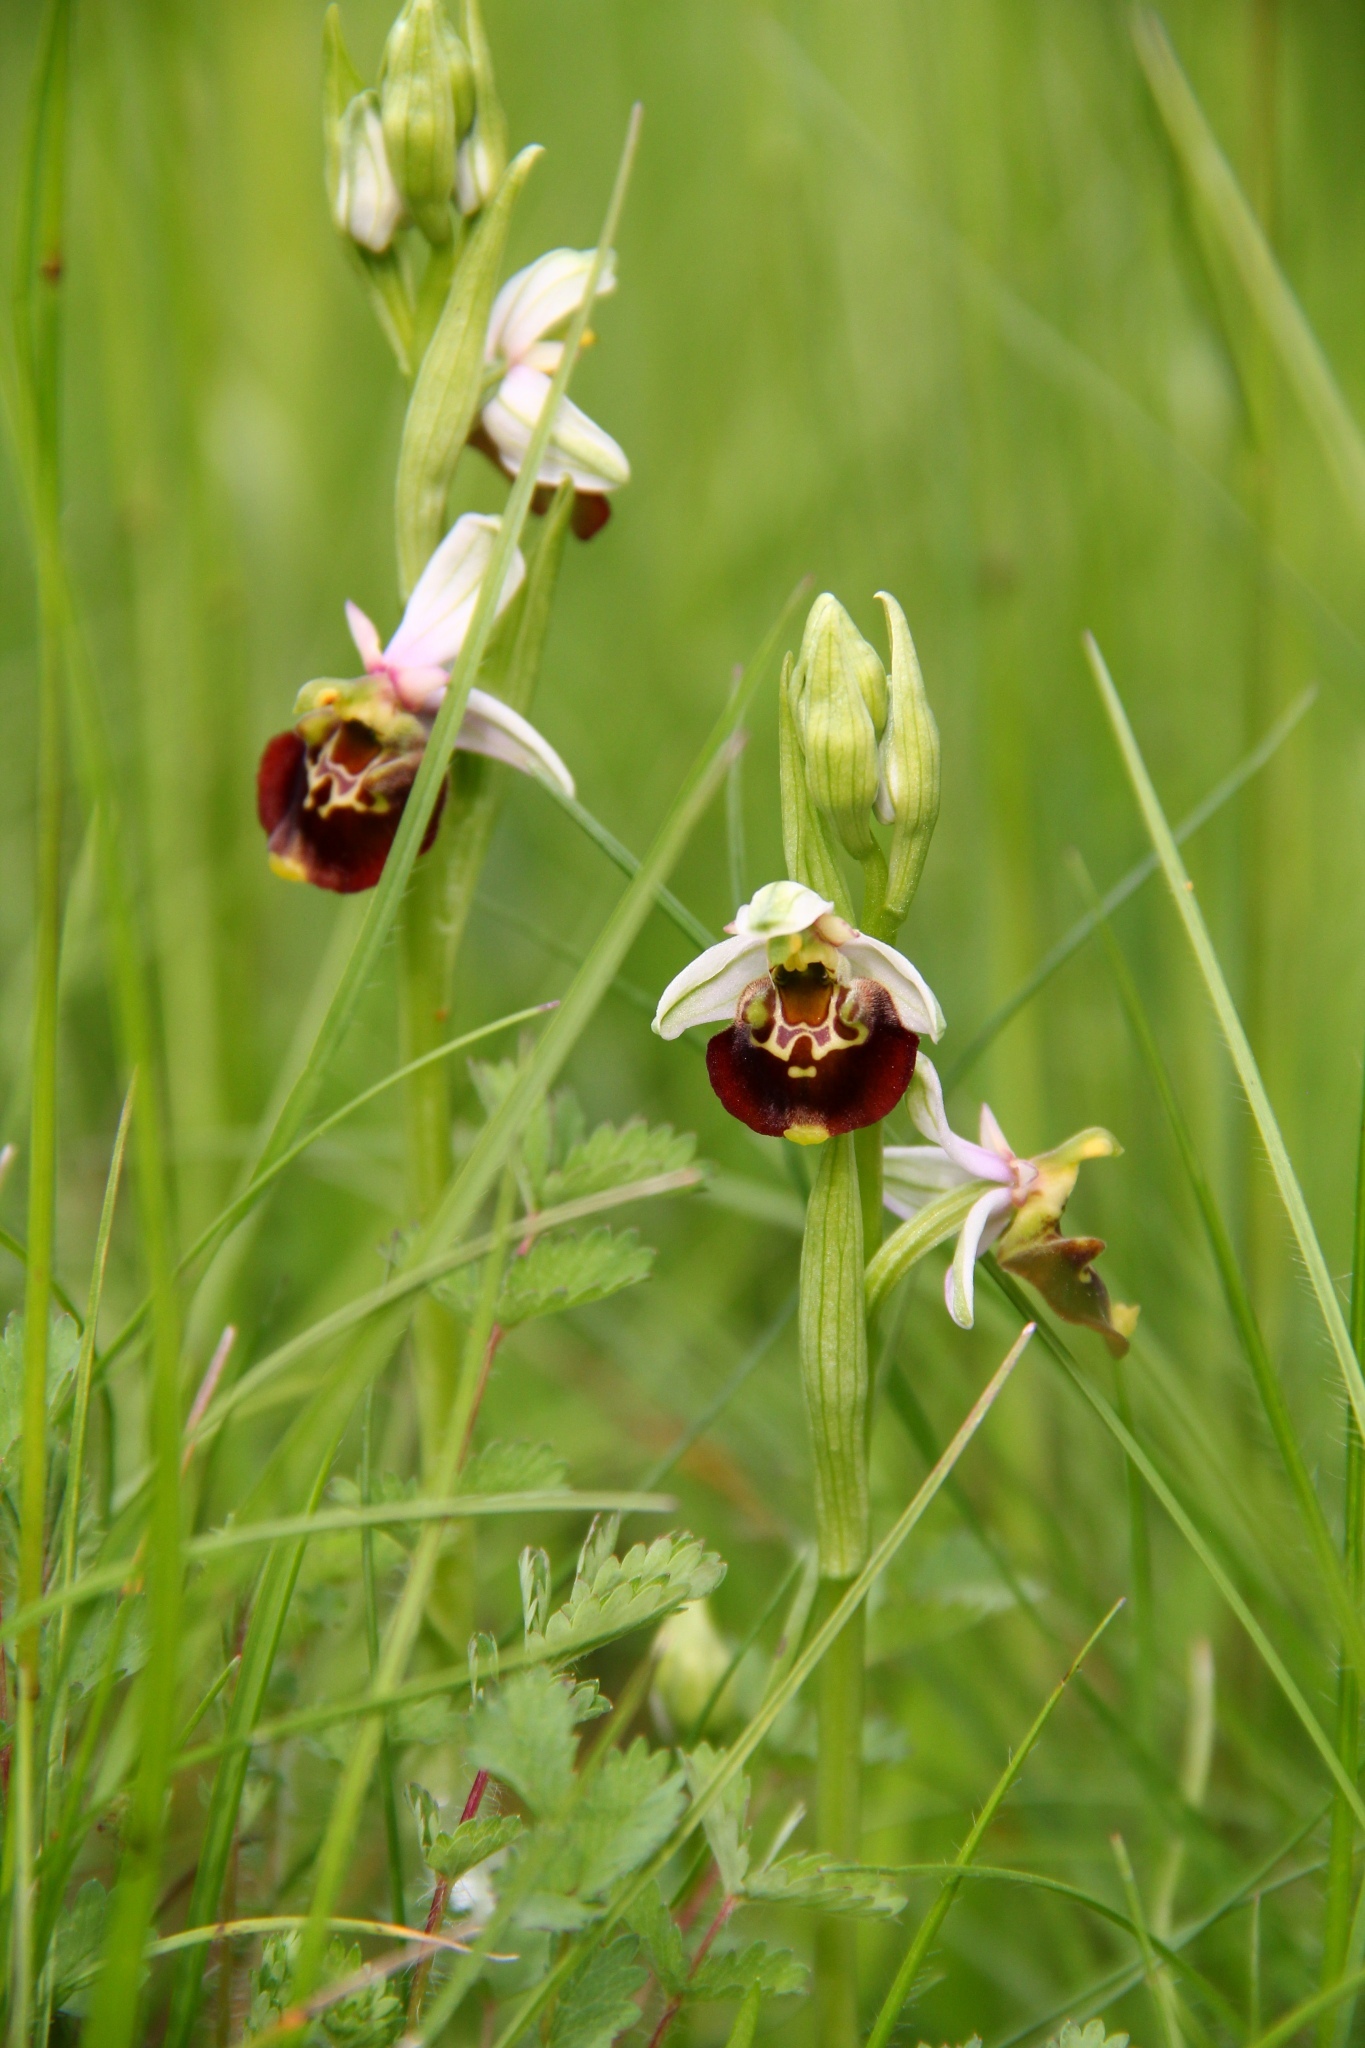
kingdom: Plantae
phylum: Tracheophyta
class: Liliopsida
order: Asparagales
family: Orchidaceae
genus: Ophrys
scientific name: Ophrys holosericea
